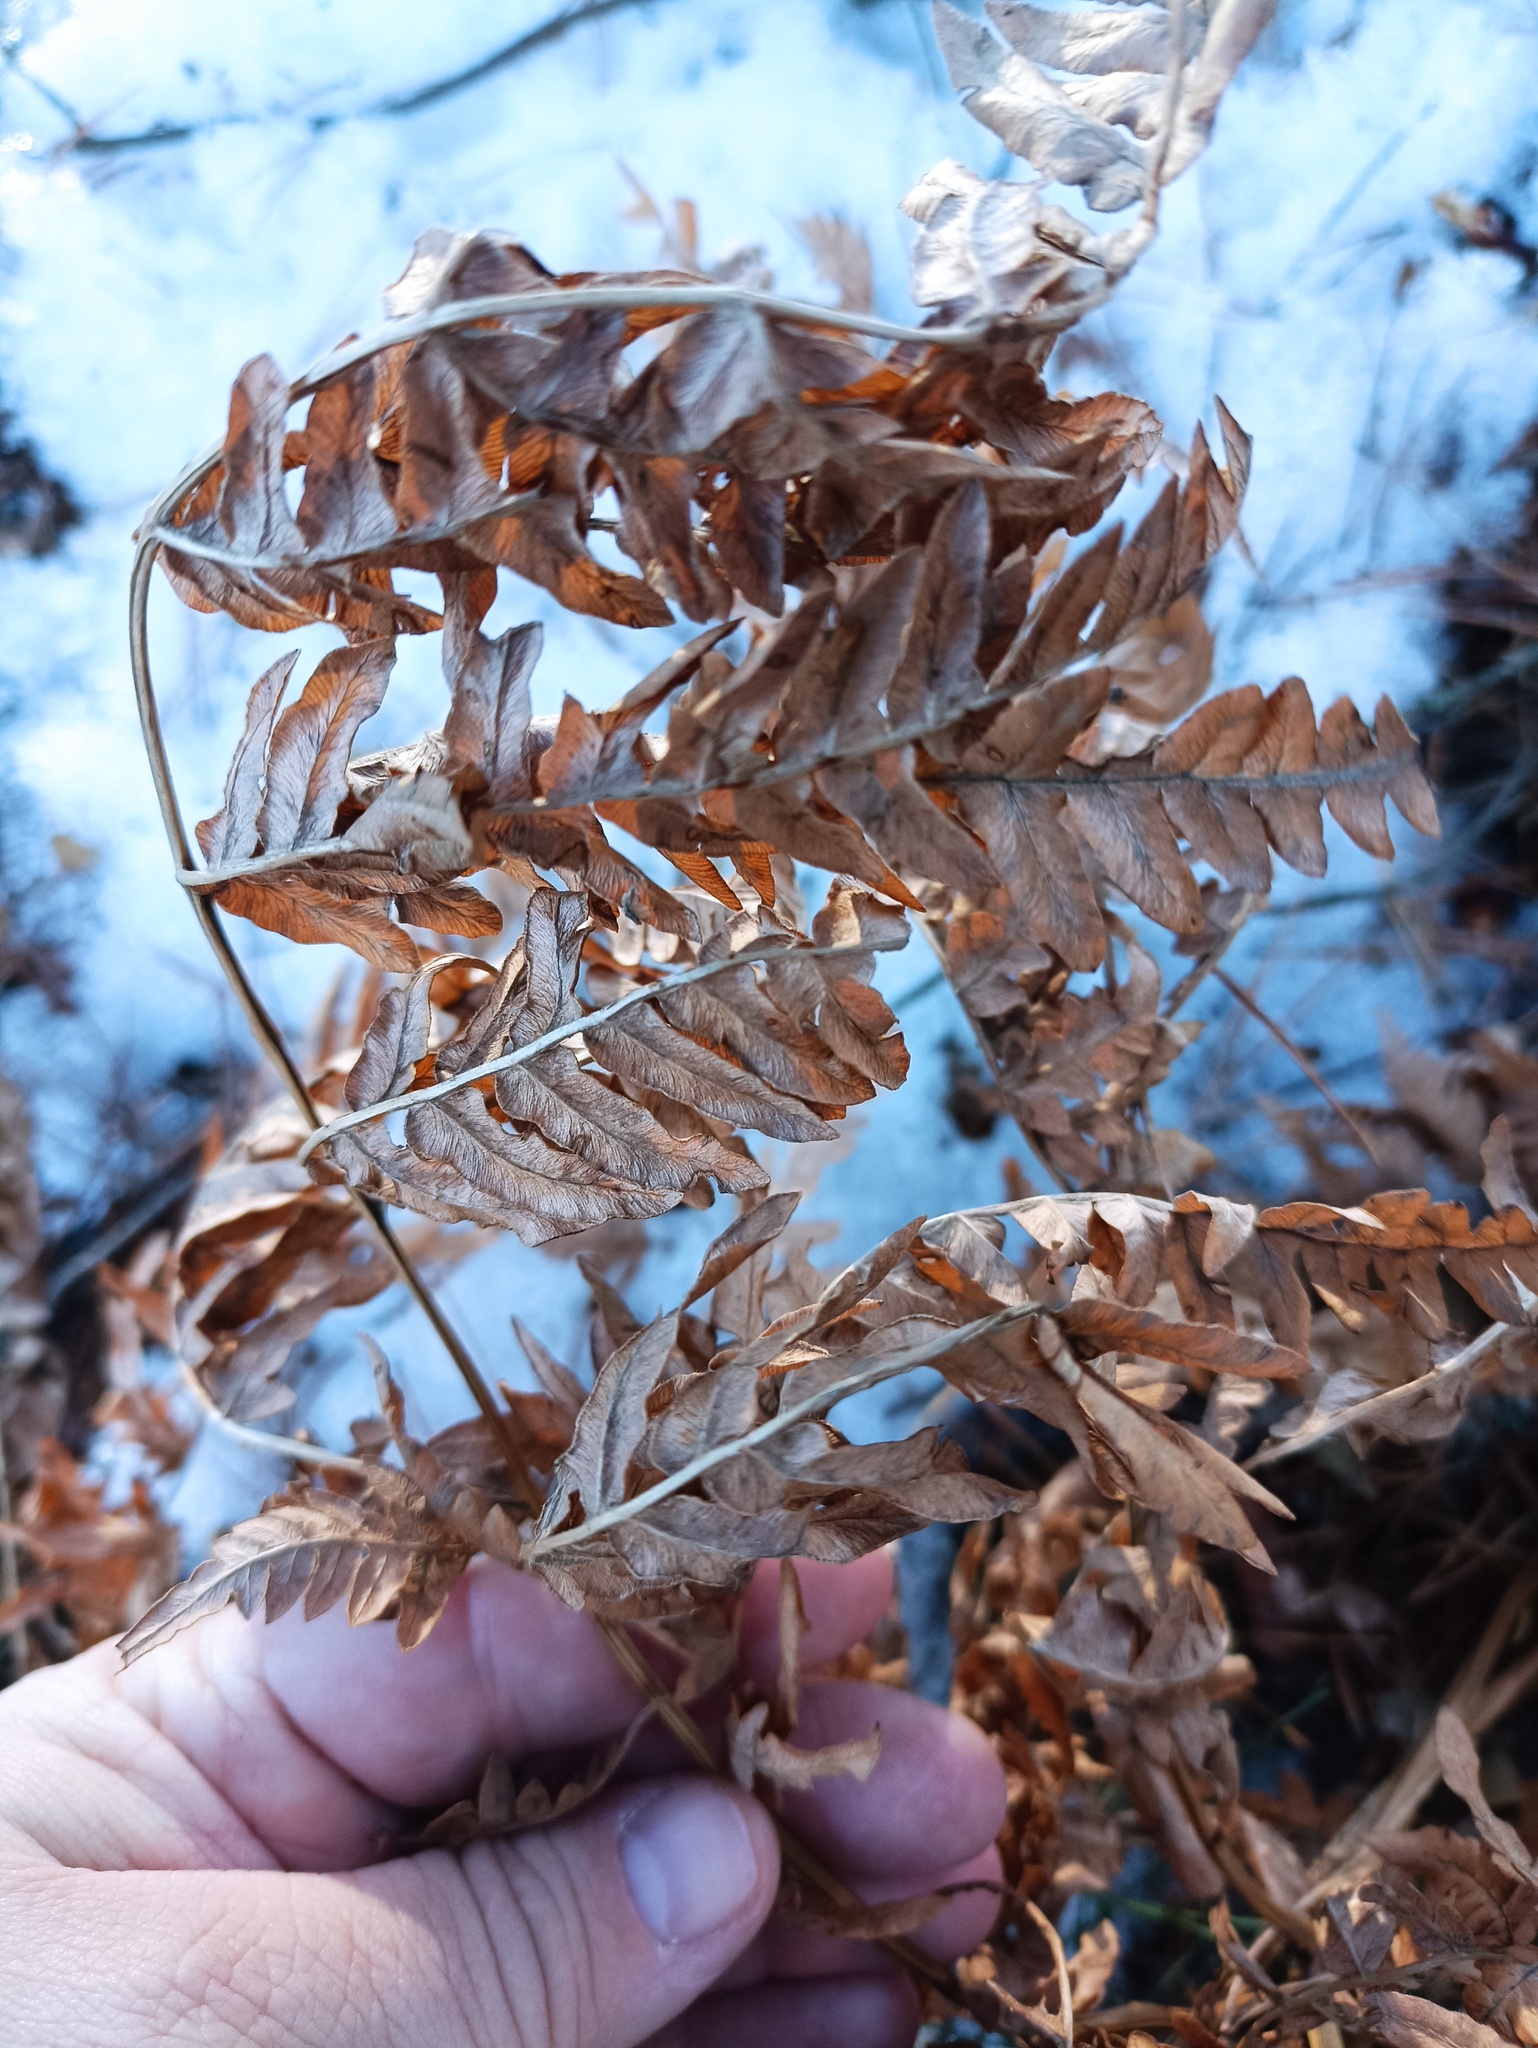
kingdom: Plantae
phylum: Tracheophyta
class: Polypodiopsida
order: Polypodiales
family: Dennstaedtiaceae
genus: Pteridium
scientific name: Pteridium aquilinum
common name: Bracken
